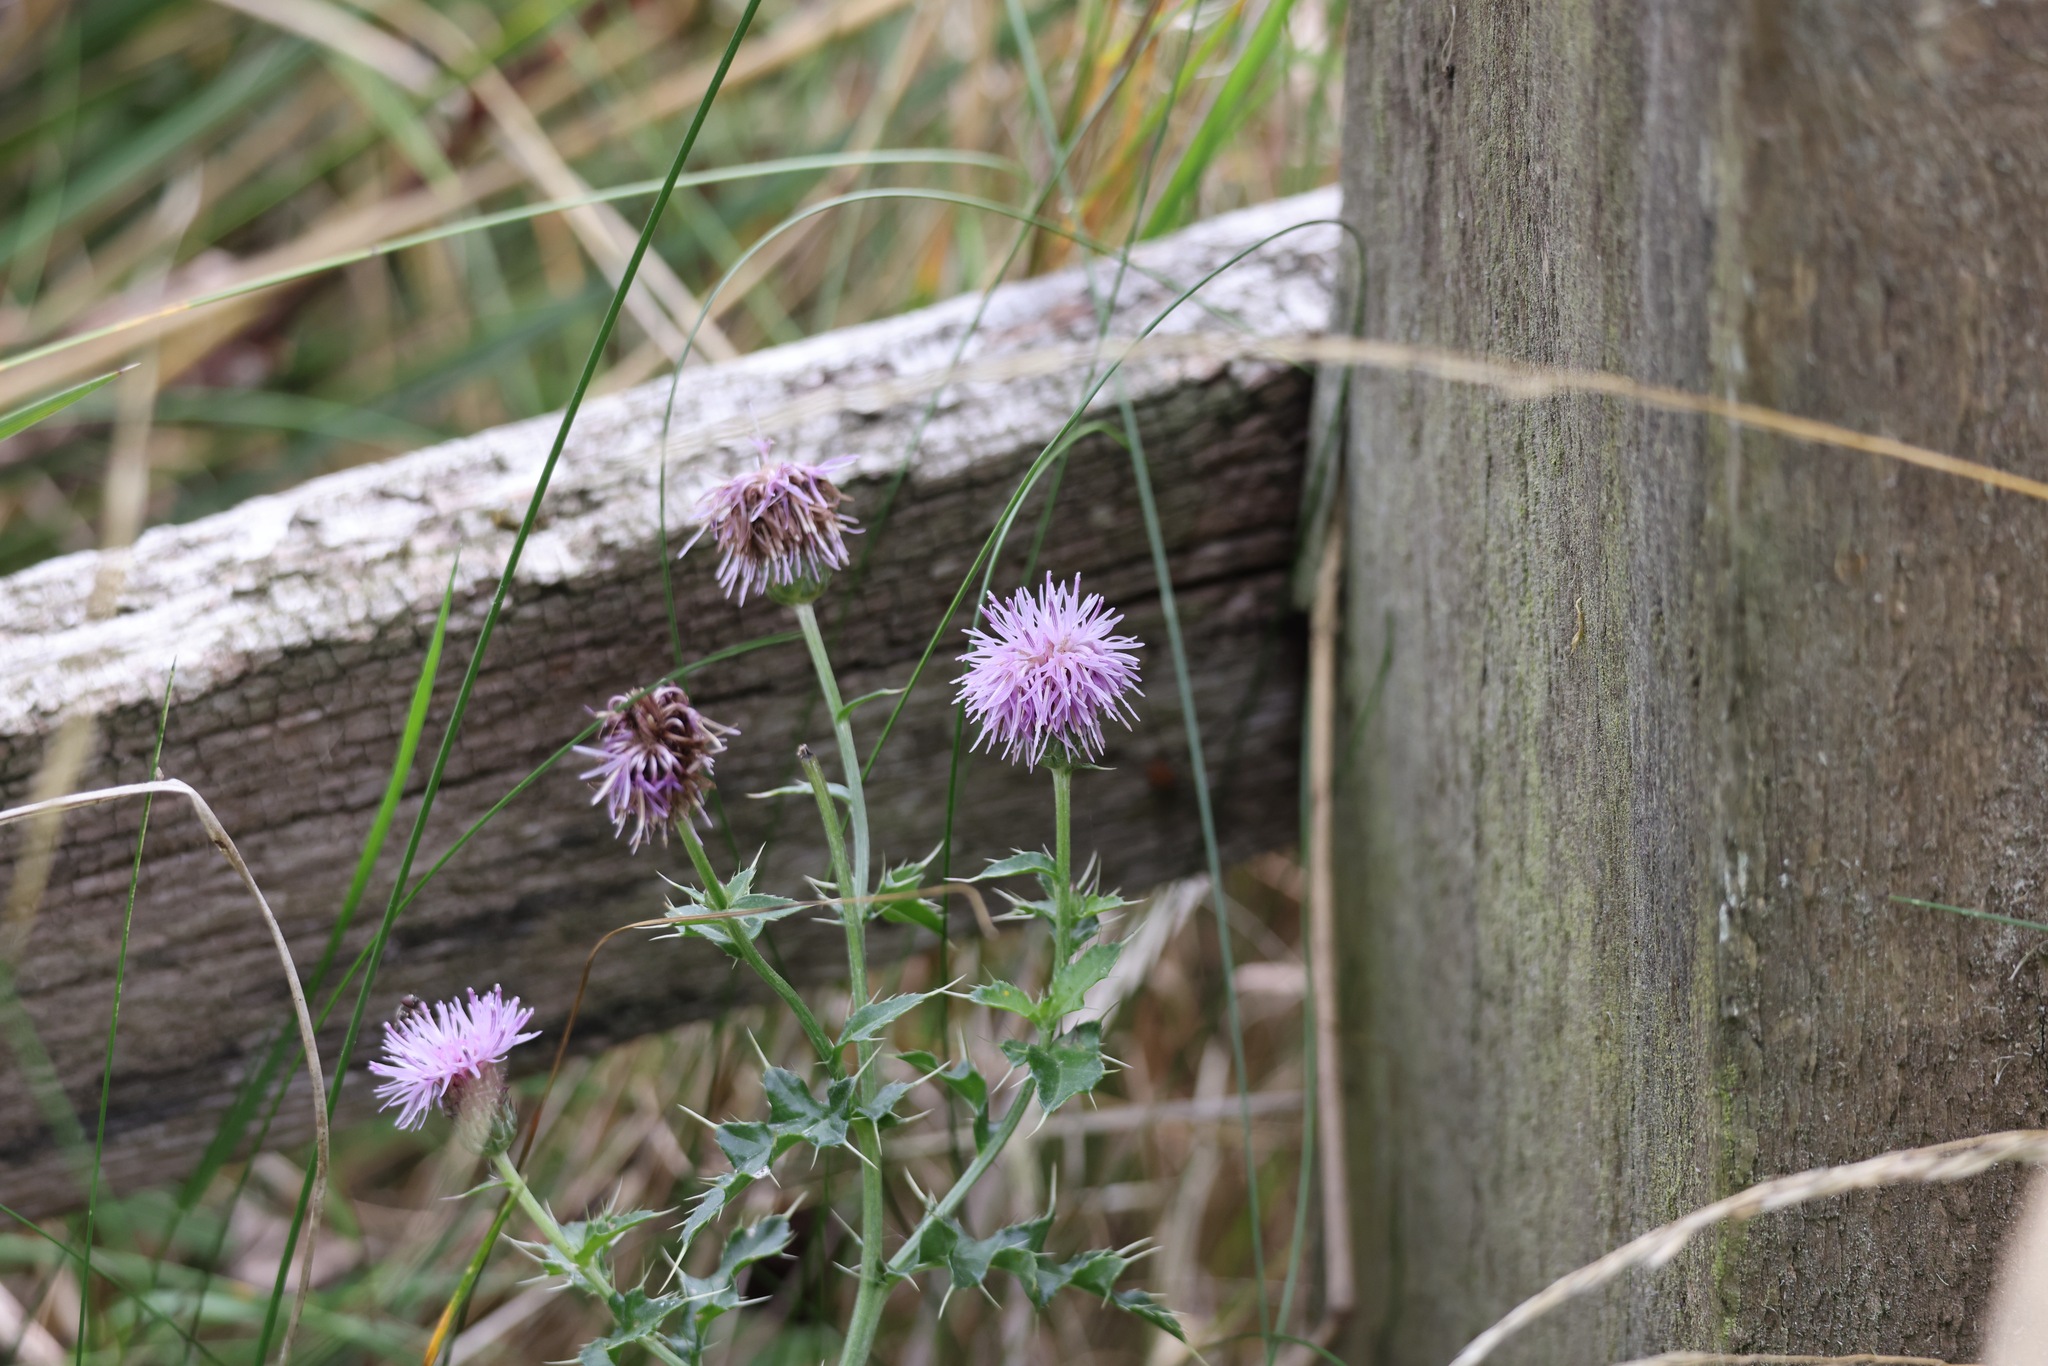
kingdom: Plantae
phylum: Tracheophyta
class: Magnoliopsida
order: Asterales
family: Asteraceae
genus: Cirsium
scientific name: Cirsium arvense
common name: Creeping thistle
